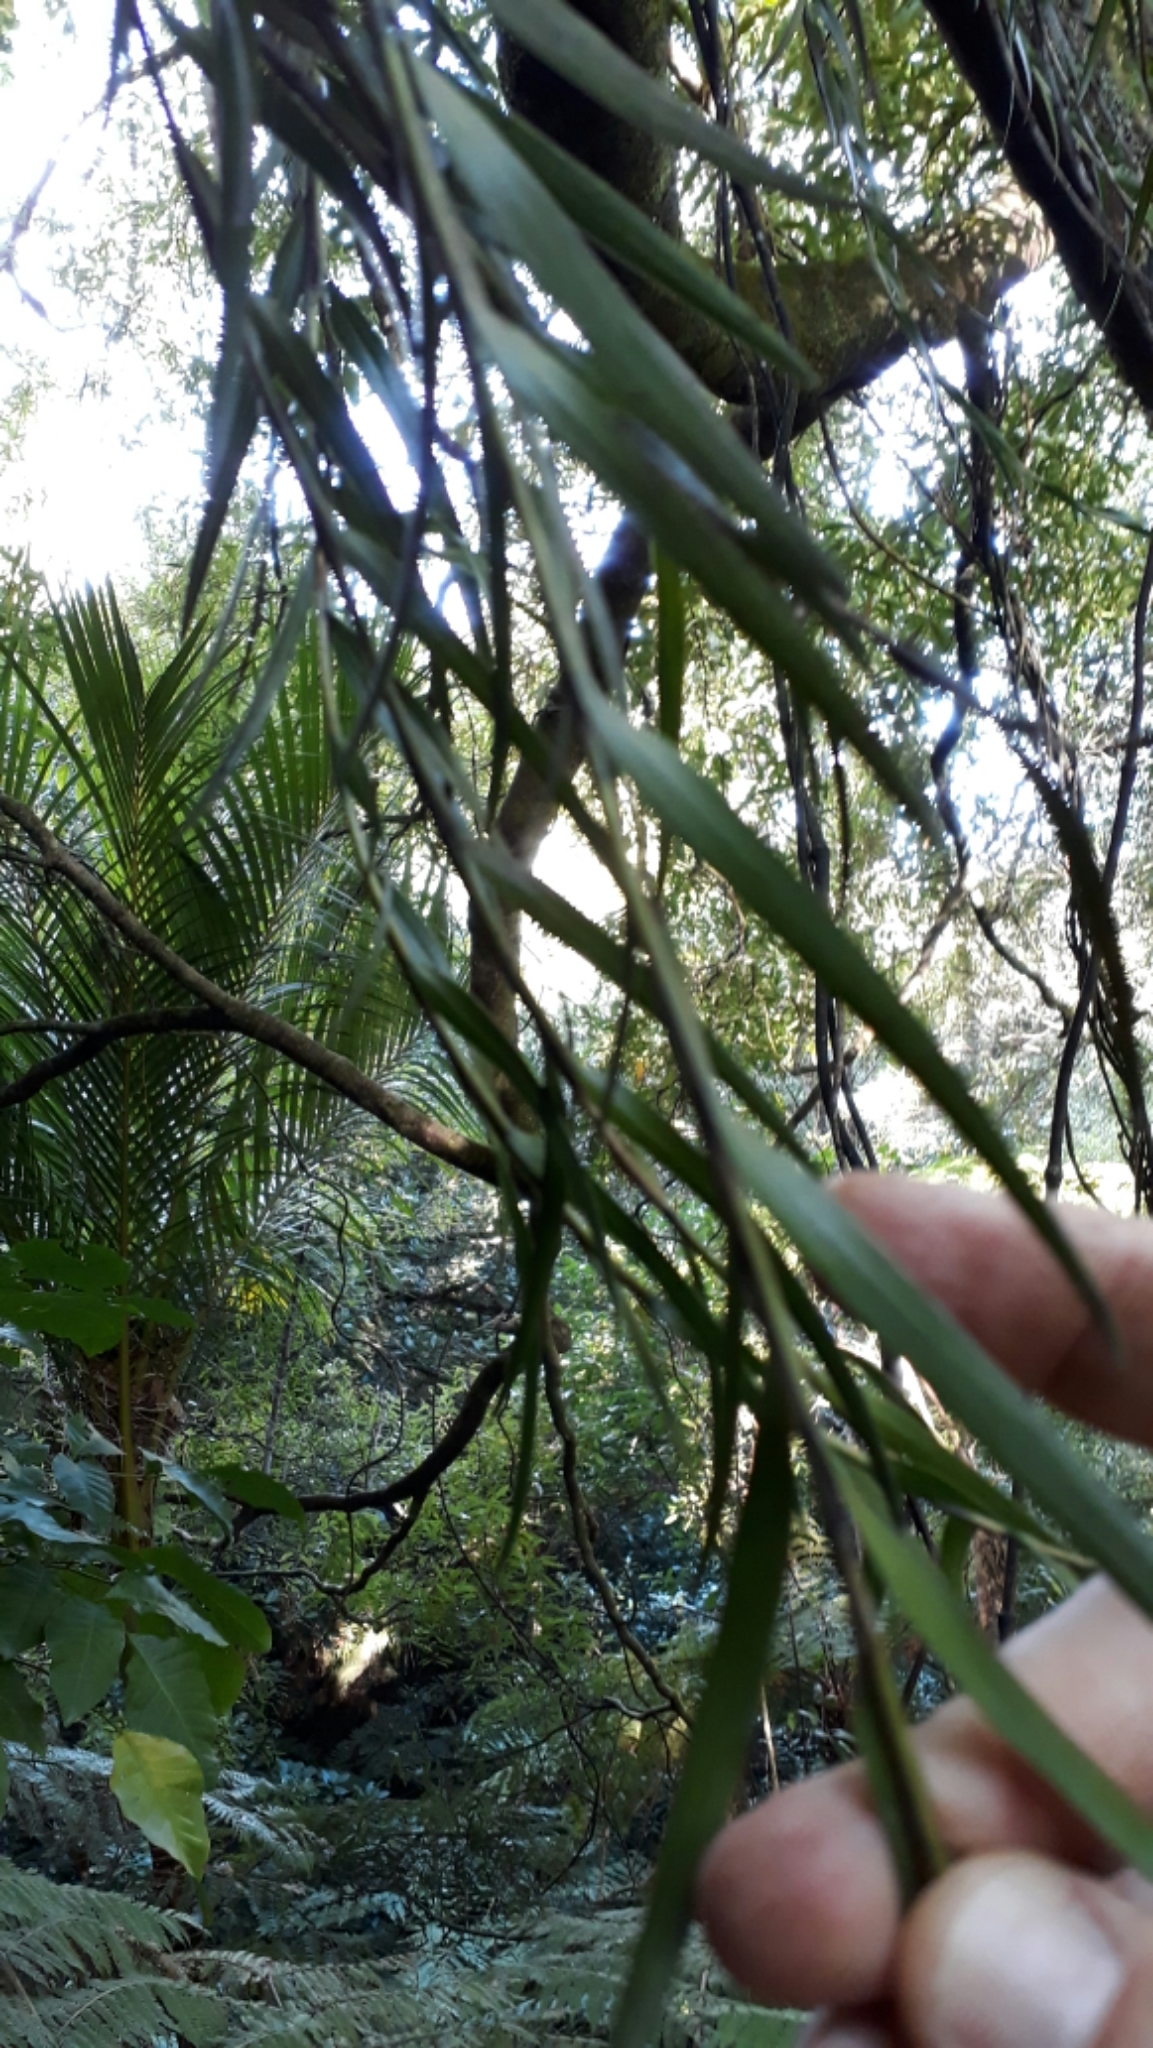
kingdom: Plantae
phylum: Tracheophyta
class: Liliopsida
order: Asparagales
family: Orchidaceae
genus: Earina
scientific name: Earina autumnalis
